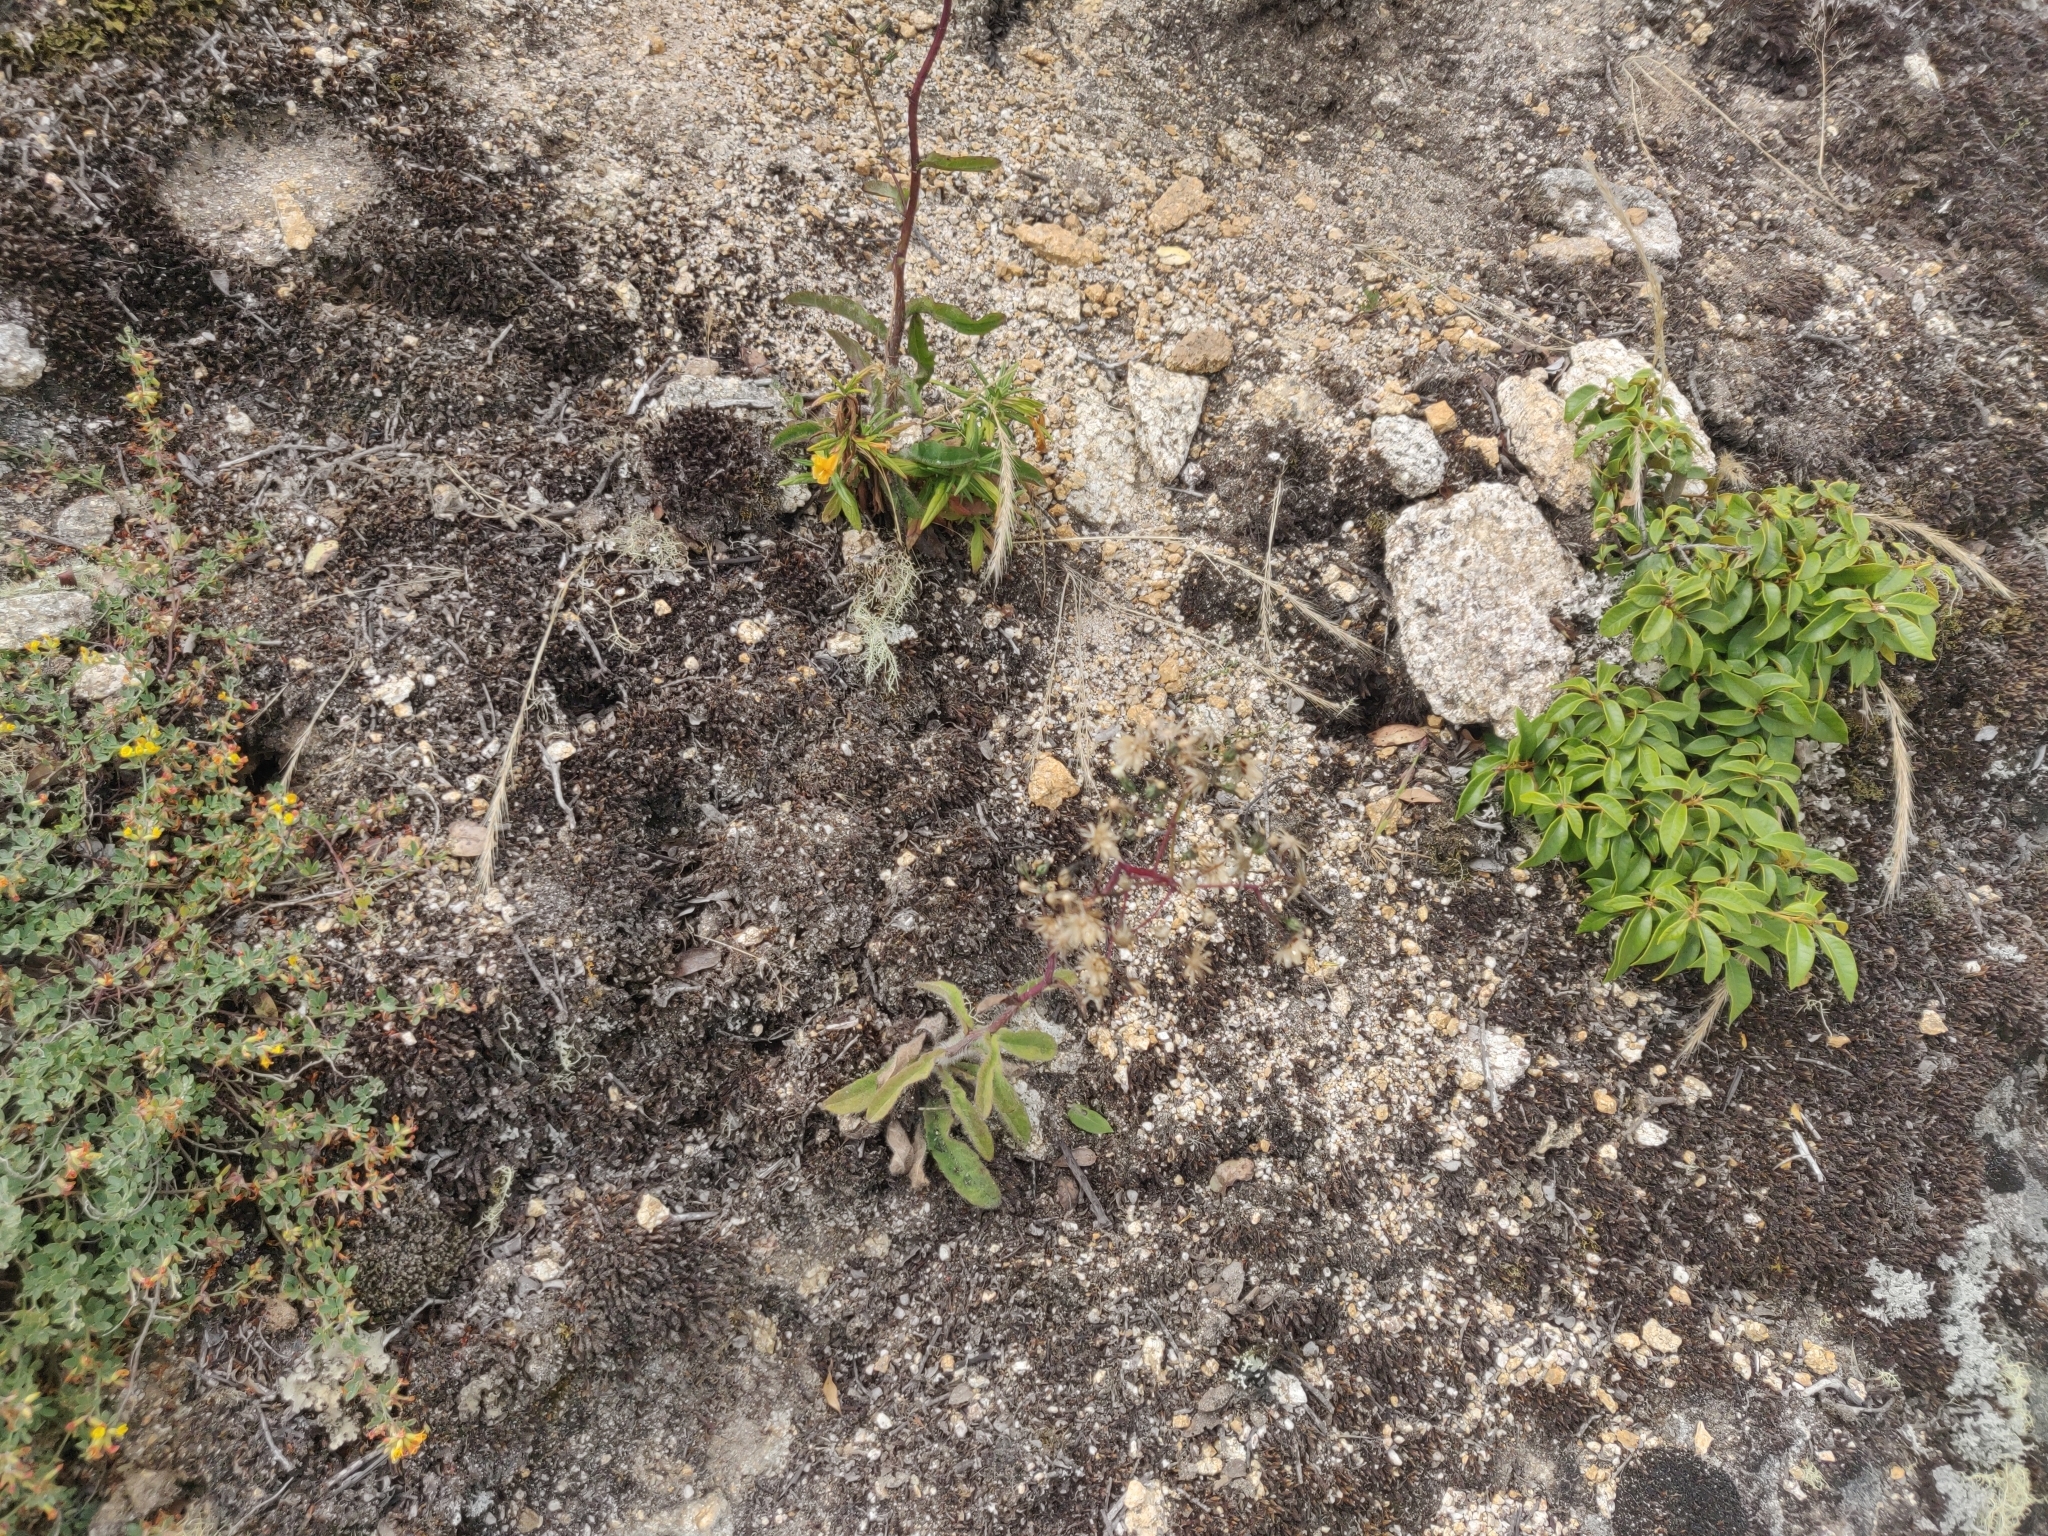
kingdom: Plantae
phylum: Tracheophyta
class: Magnoliopsida
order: Asterales
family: Asteraceae
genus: Hieracium
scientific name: Hieracium albiflorum
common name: White hawkweed
